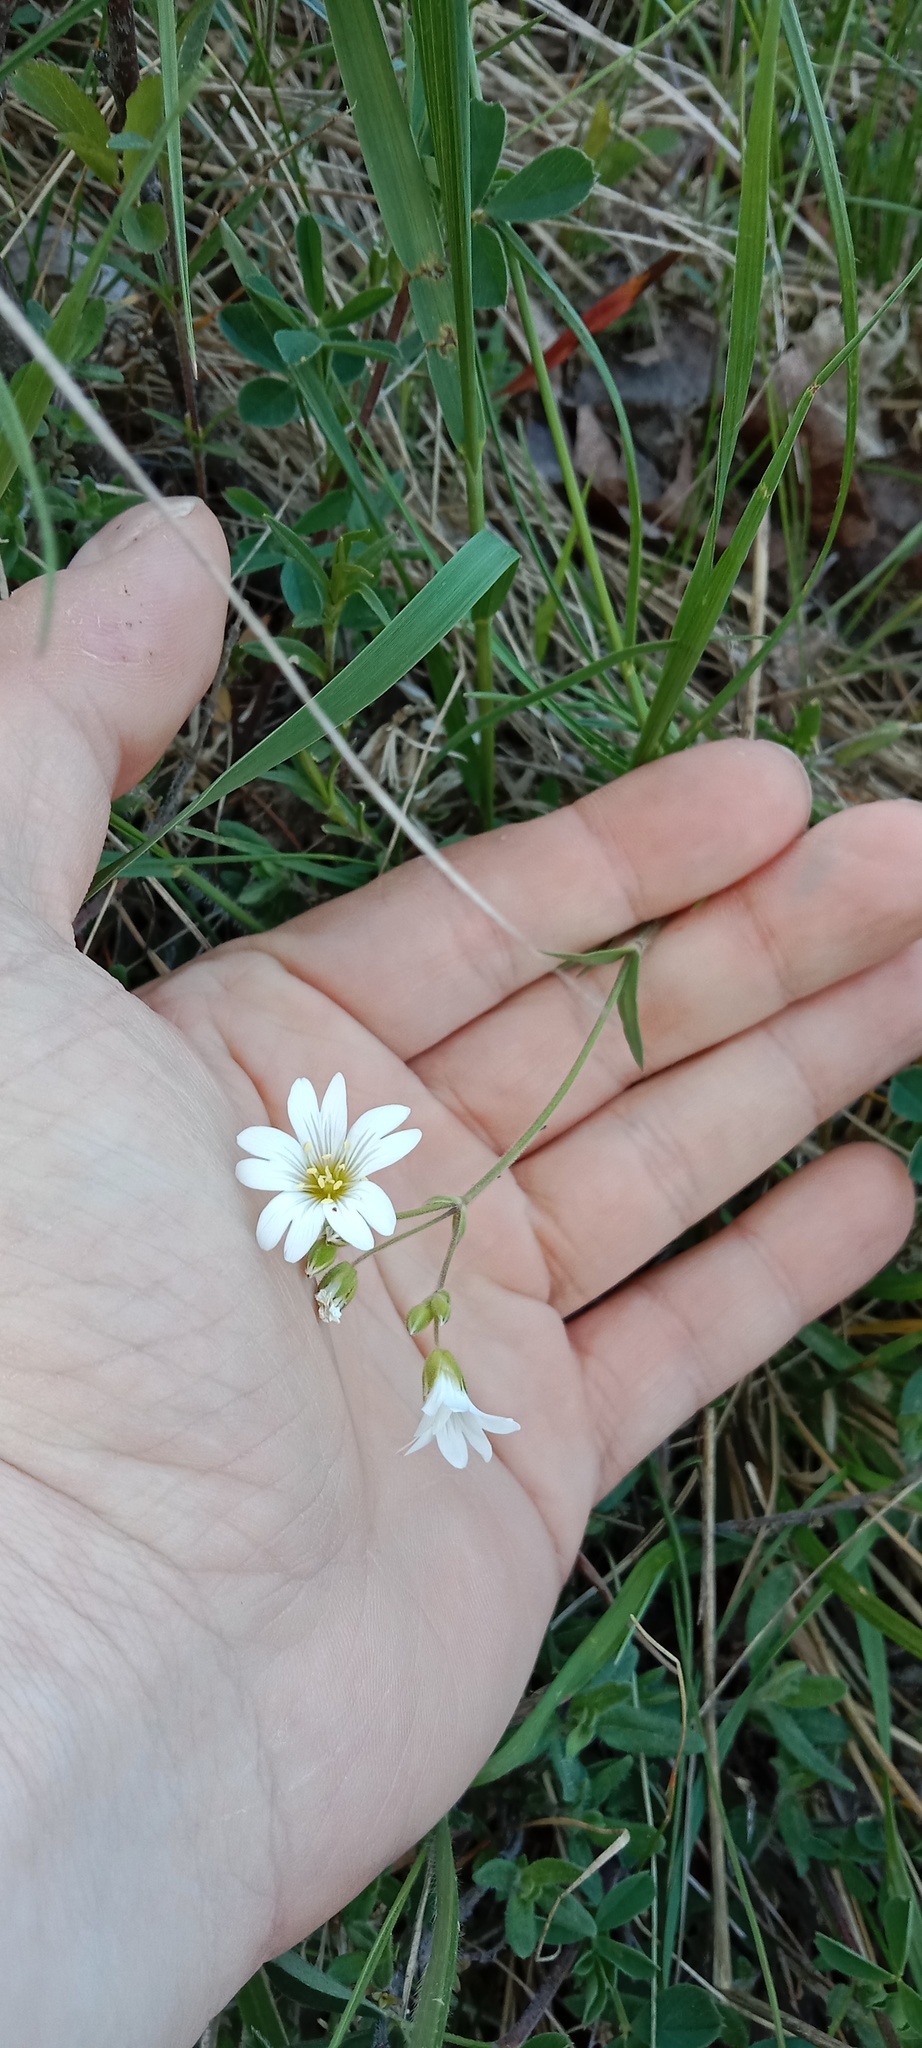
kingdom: Plantae
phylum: Tracheophyta
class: Magnoliopsida
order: Caryophyllales
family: Caryophyllaceae
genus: Cerastium
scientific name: Cerastium arvense
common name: Field mouse-ear
